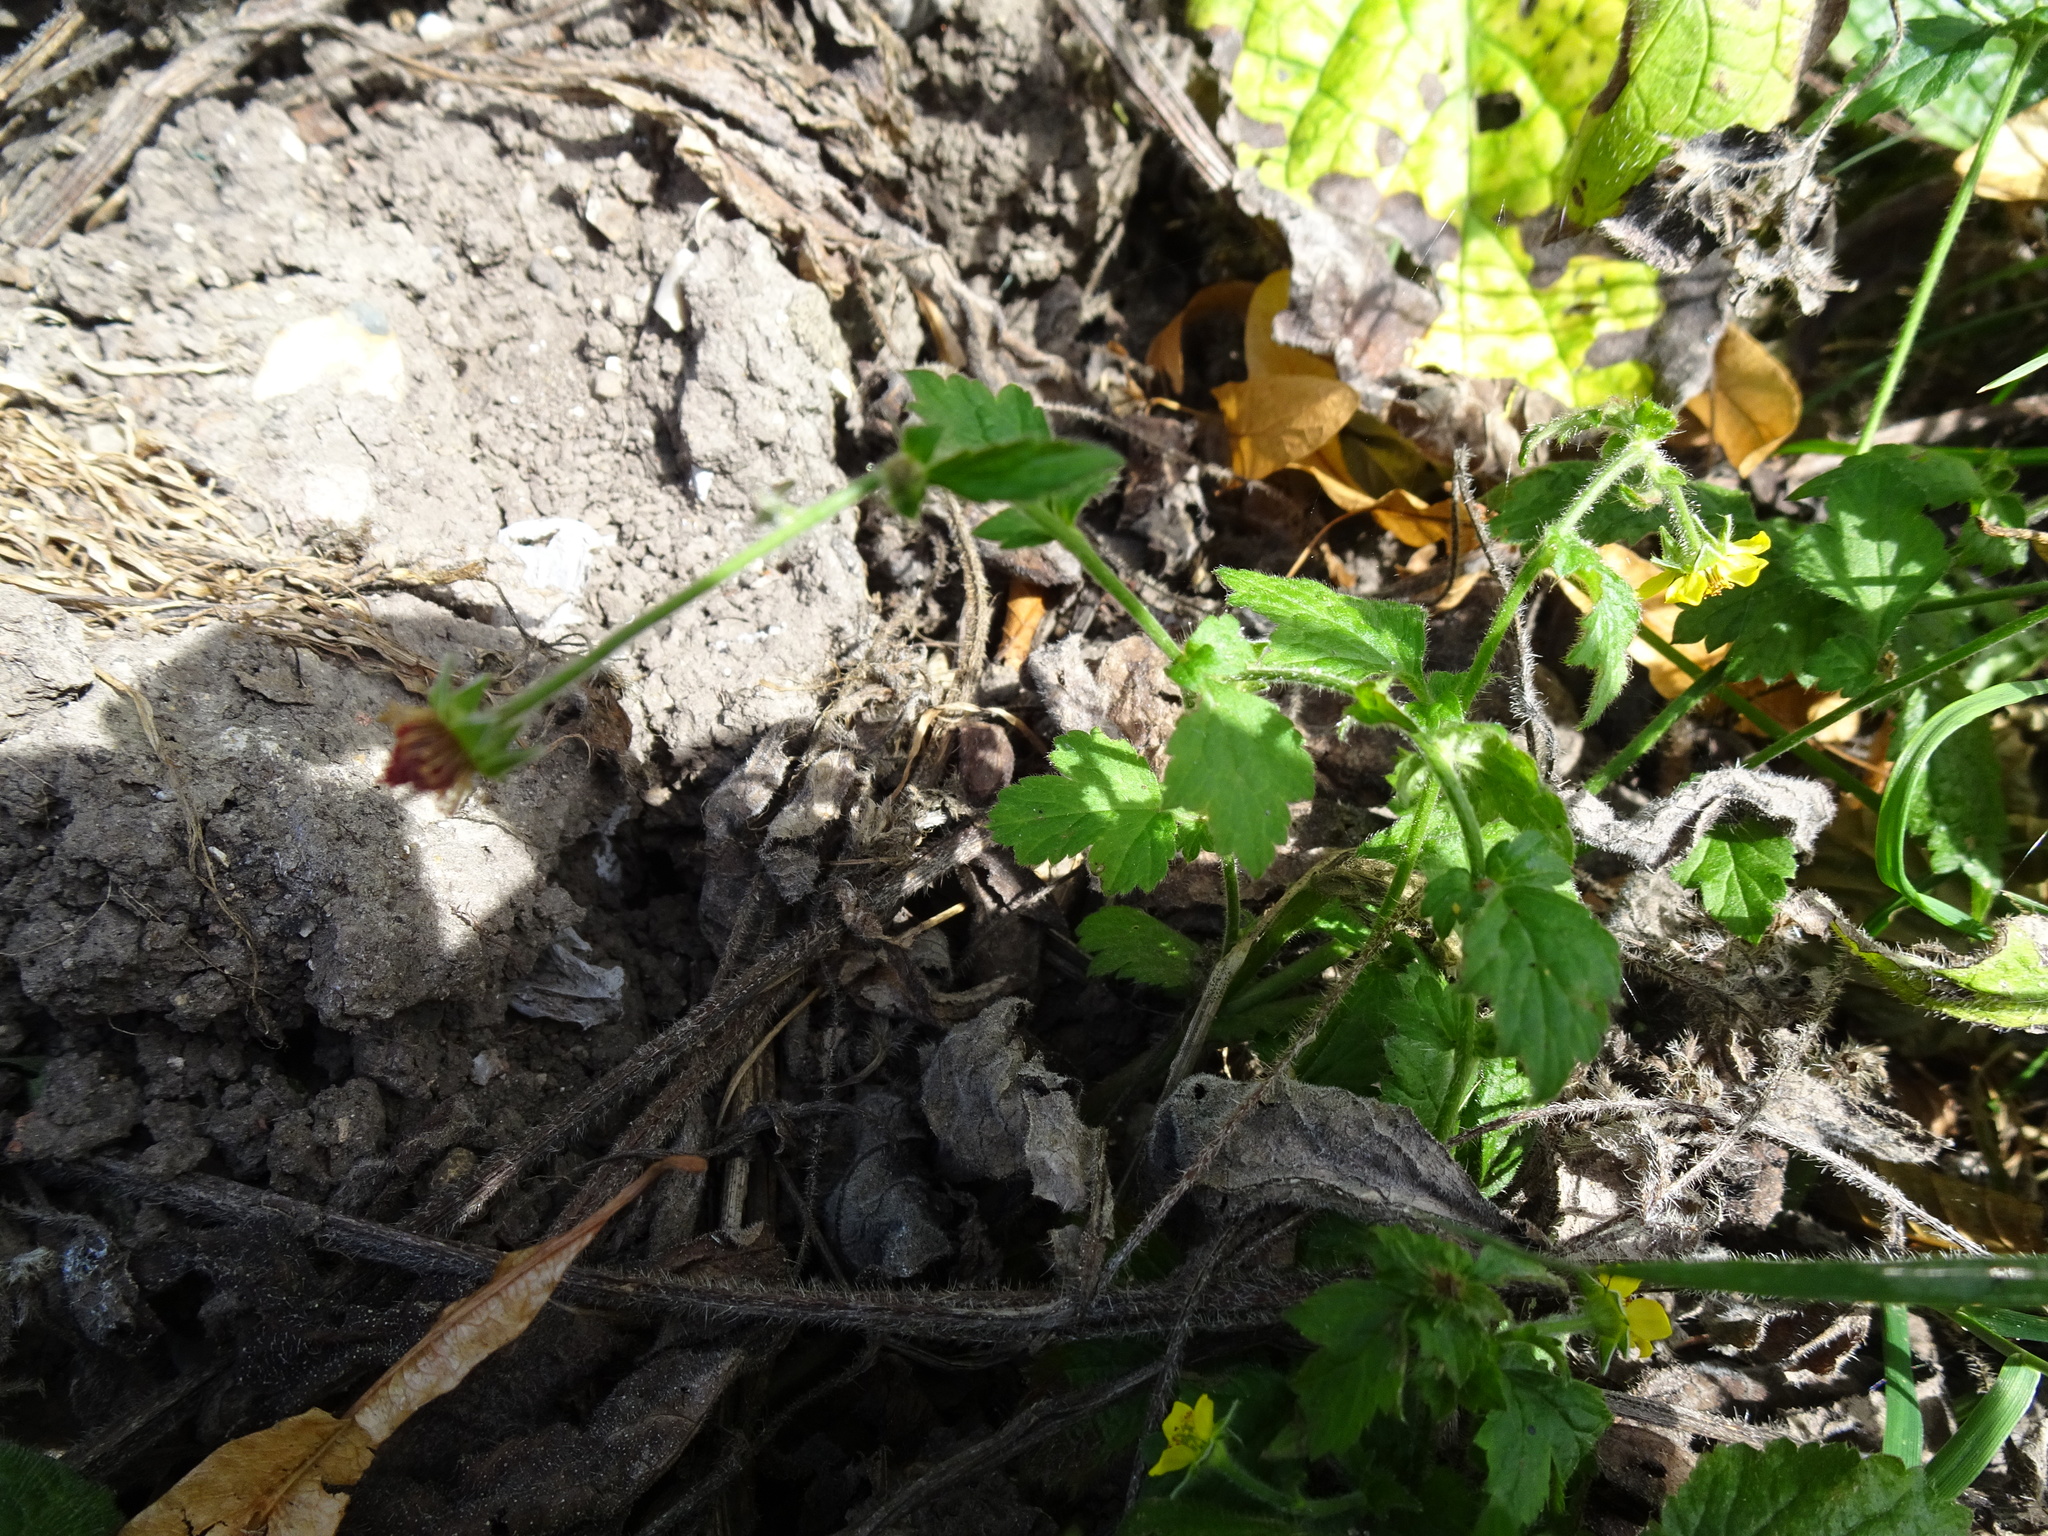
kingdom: Plantae
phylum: Tracheophyta
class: Magnoliopsida
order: Rosales
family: Rosaceae
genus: Geum
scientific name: Geum urbanum
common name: Wood avens
